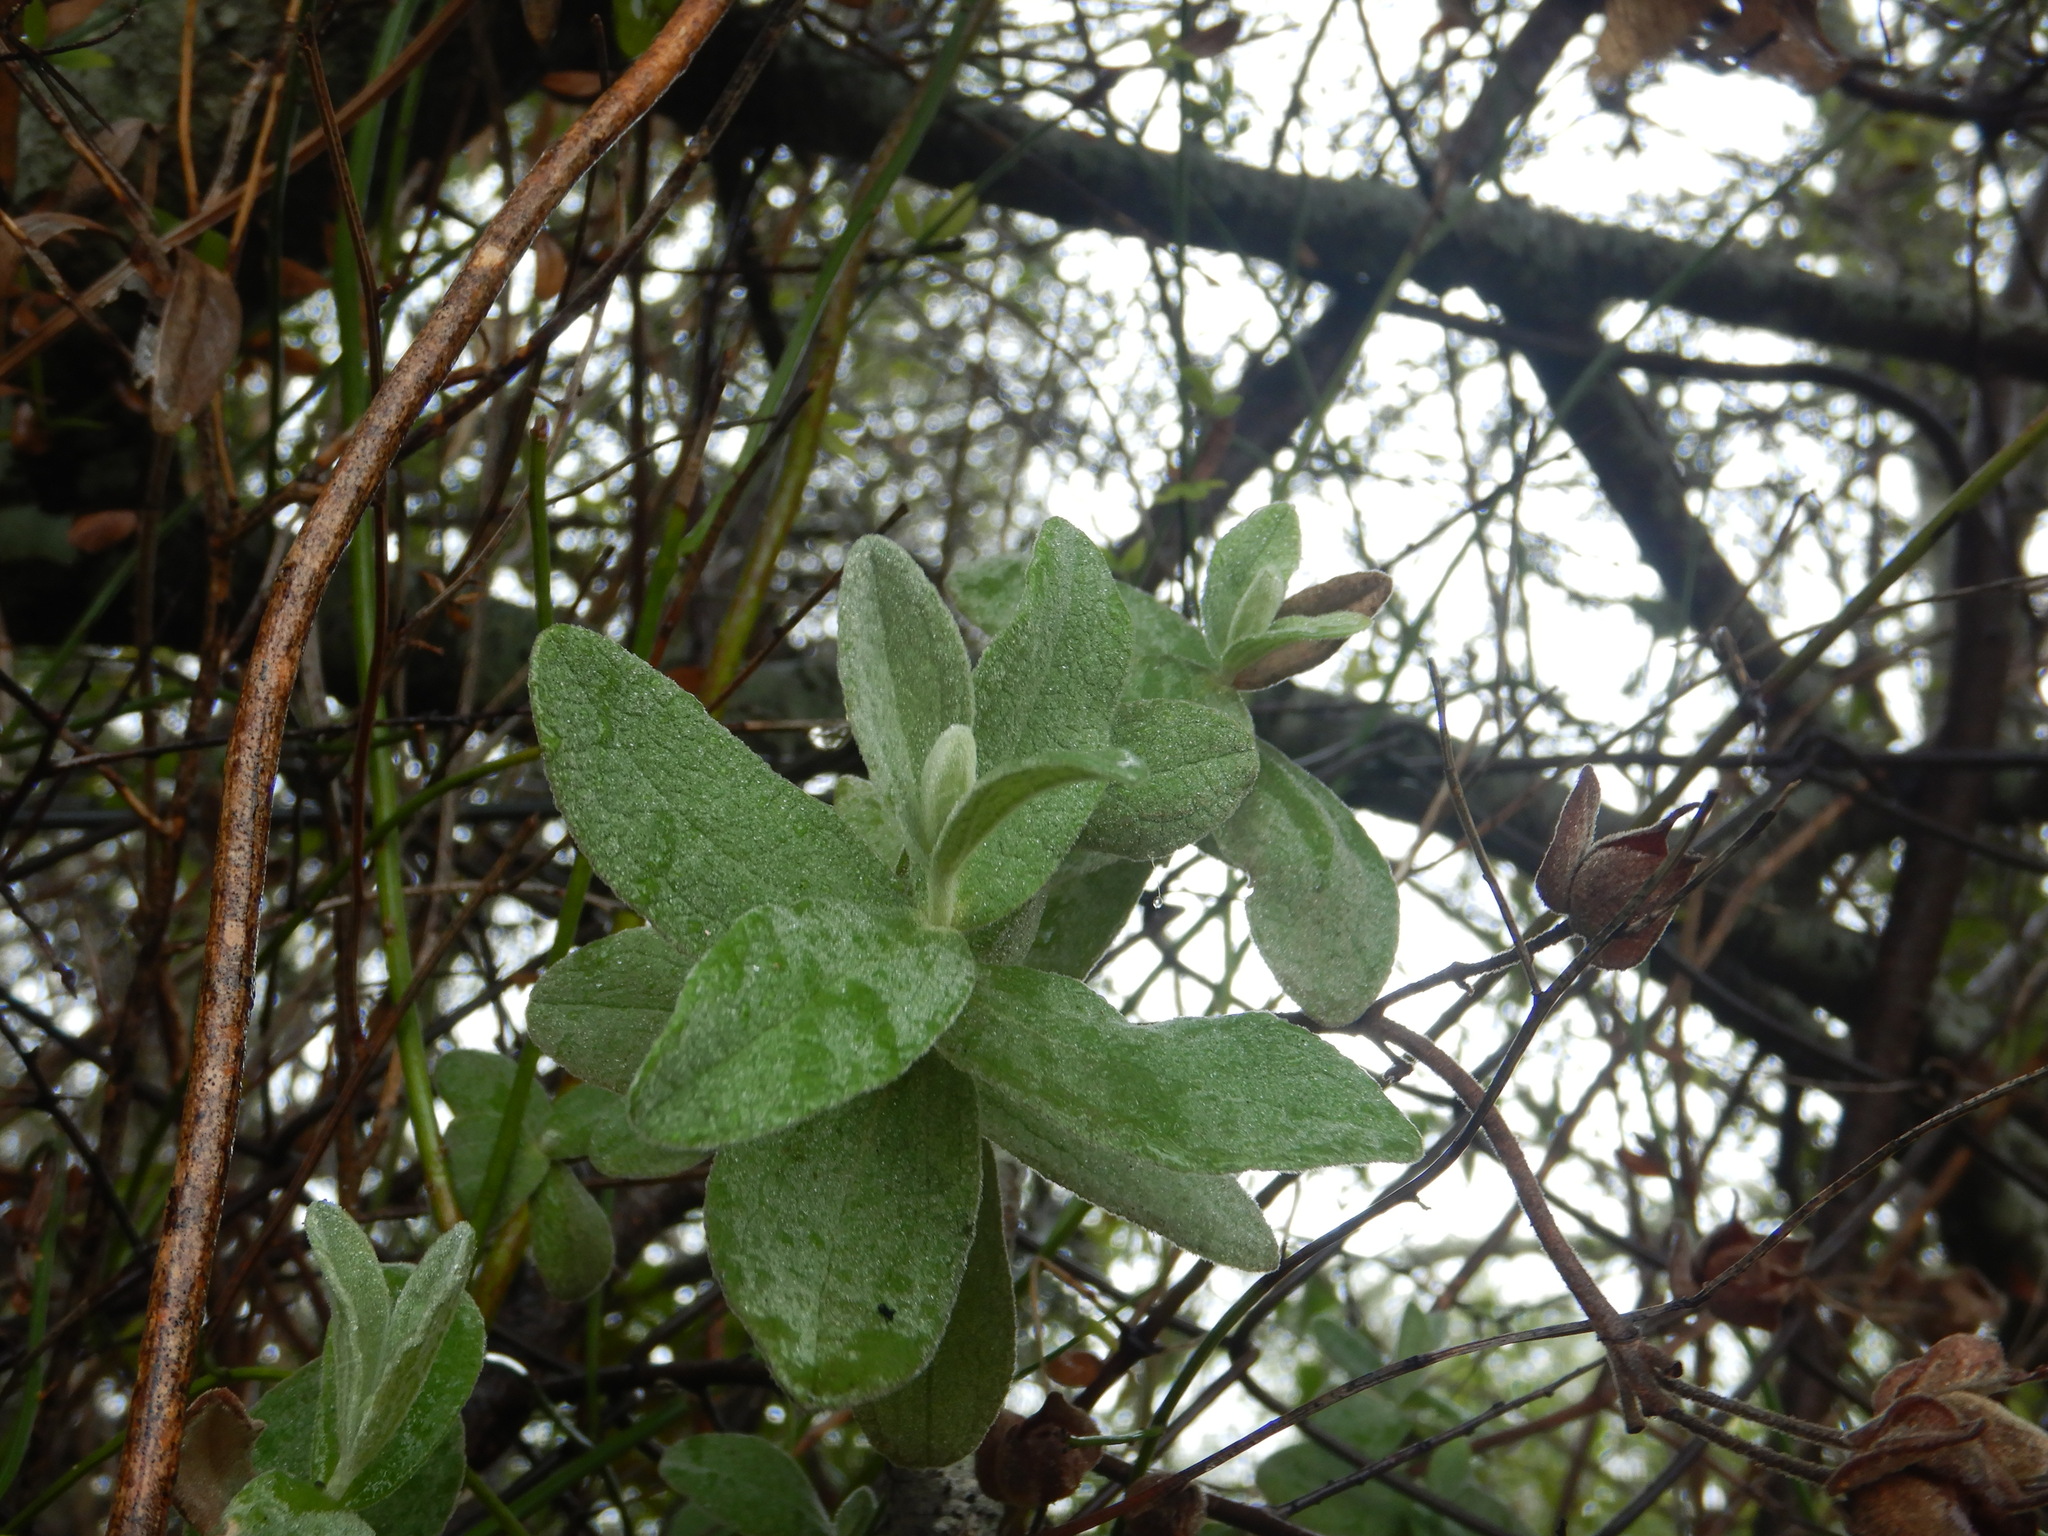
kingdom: Plantae
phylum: Tracheophyta
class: Magnoliopsida
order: Malvales
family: Cistaceae
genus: Cistus
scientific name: Cistus albidus
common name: White-leaf rock-rose
